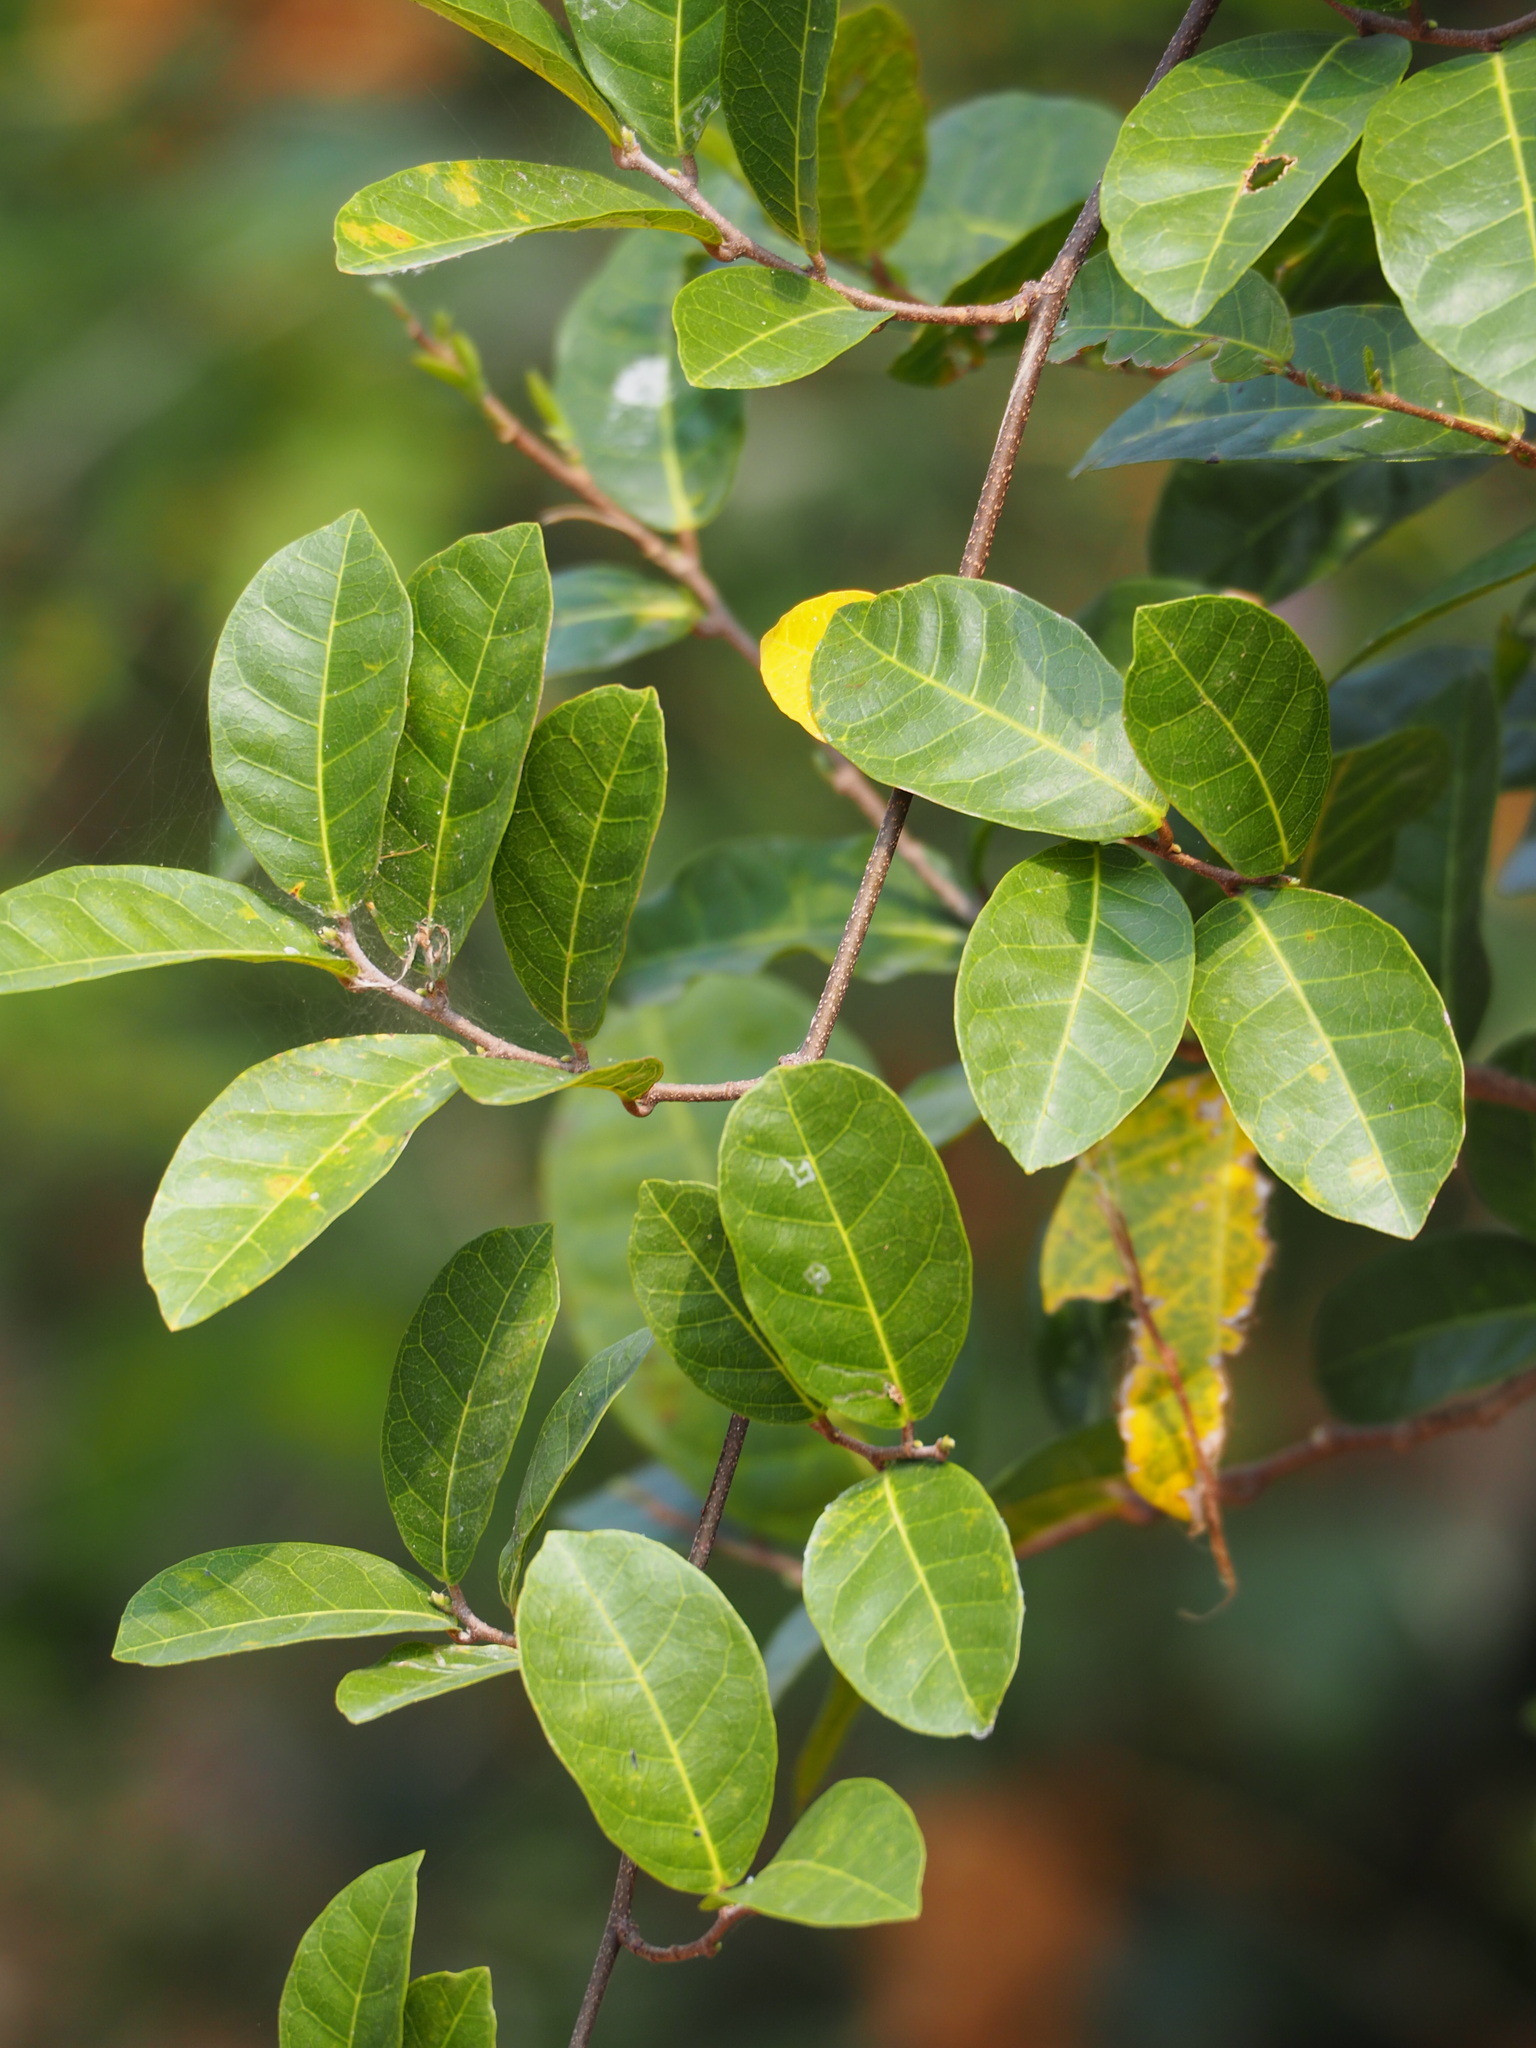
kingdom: Plantae
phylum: Tracheophyta
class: Magnoliopsida
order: Rosales
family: Moraceae
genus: Malaisia
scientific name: Malaisia scandens
